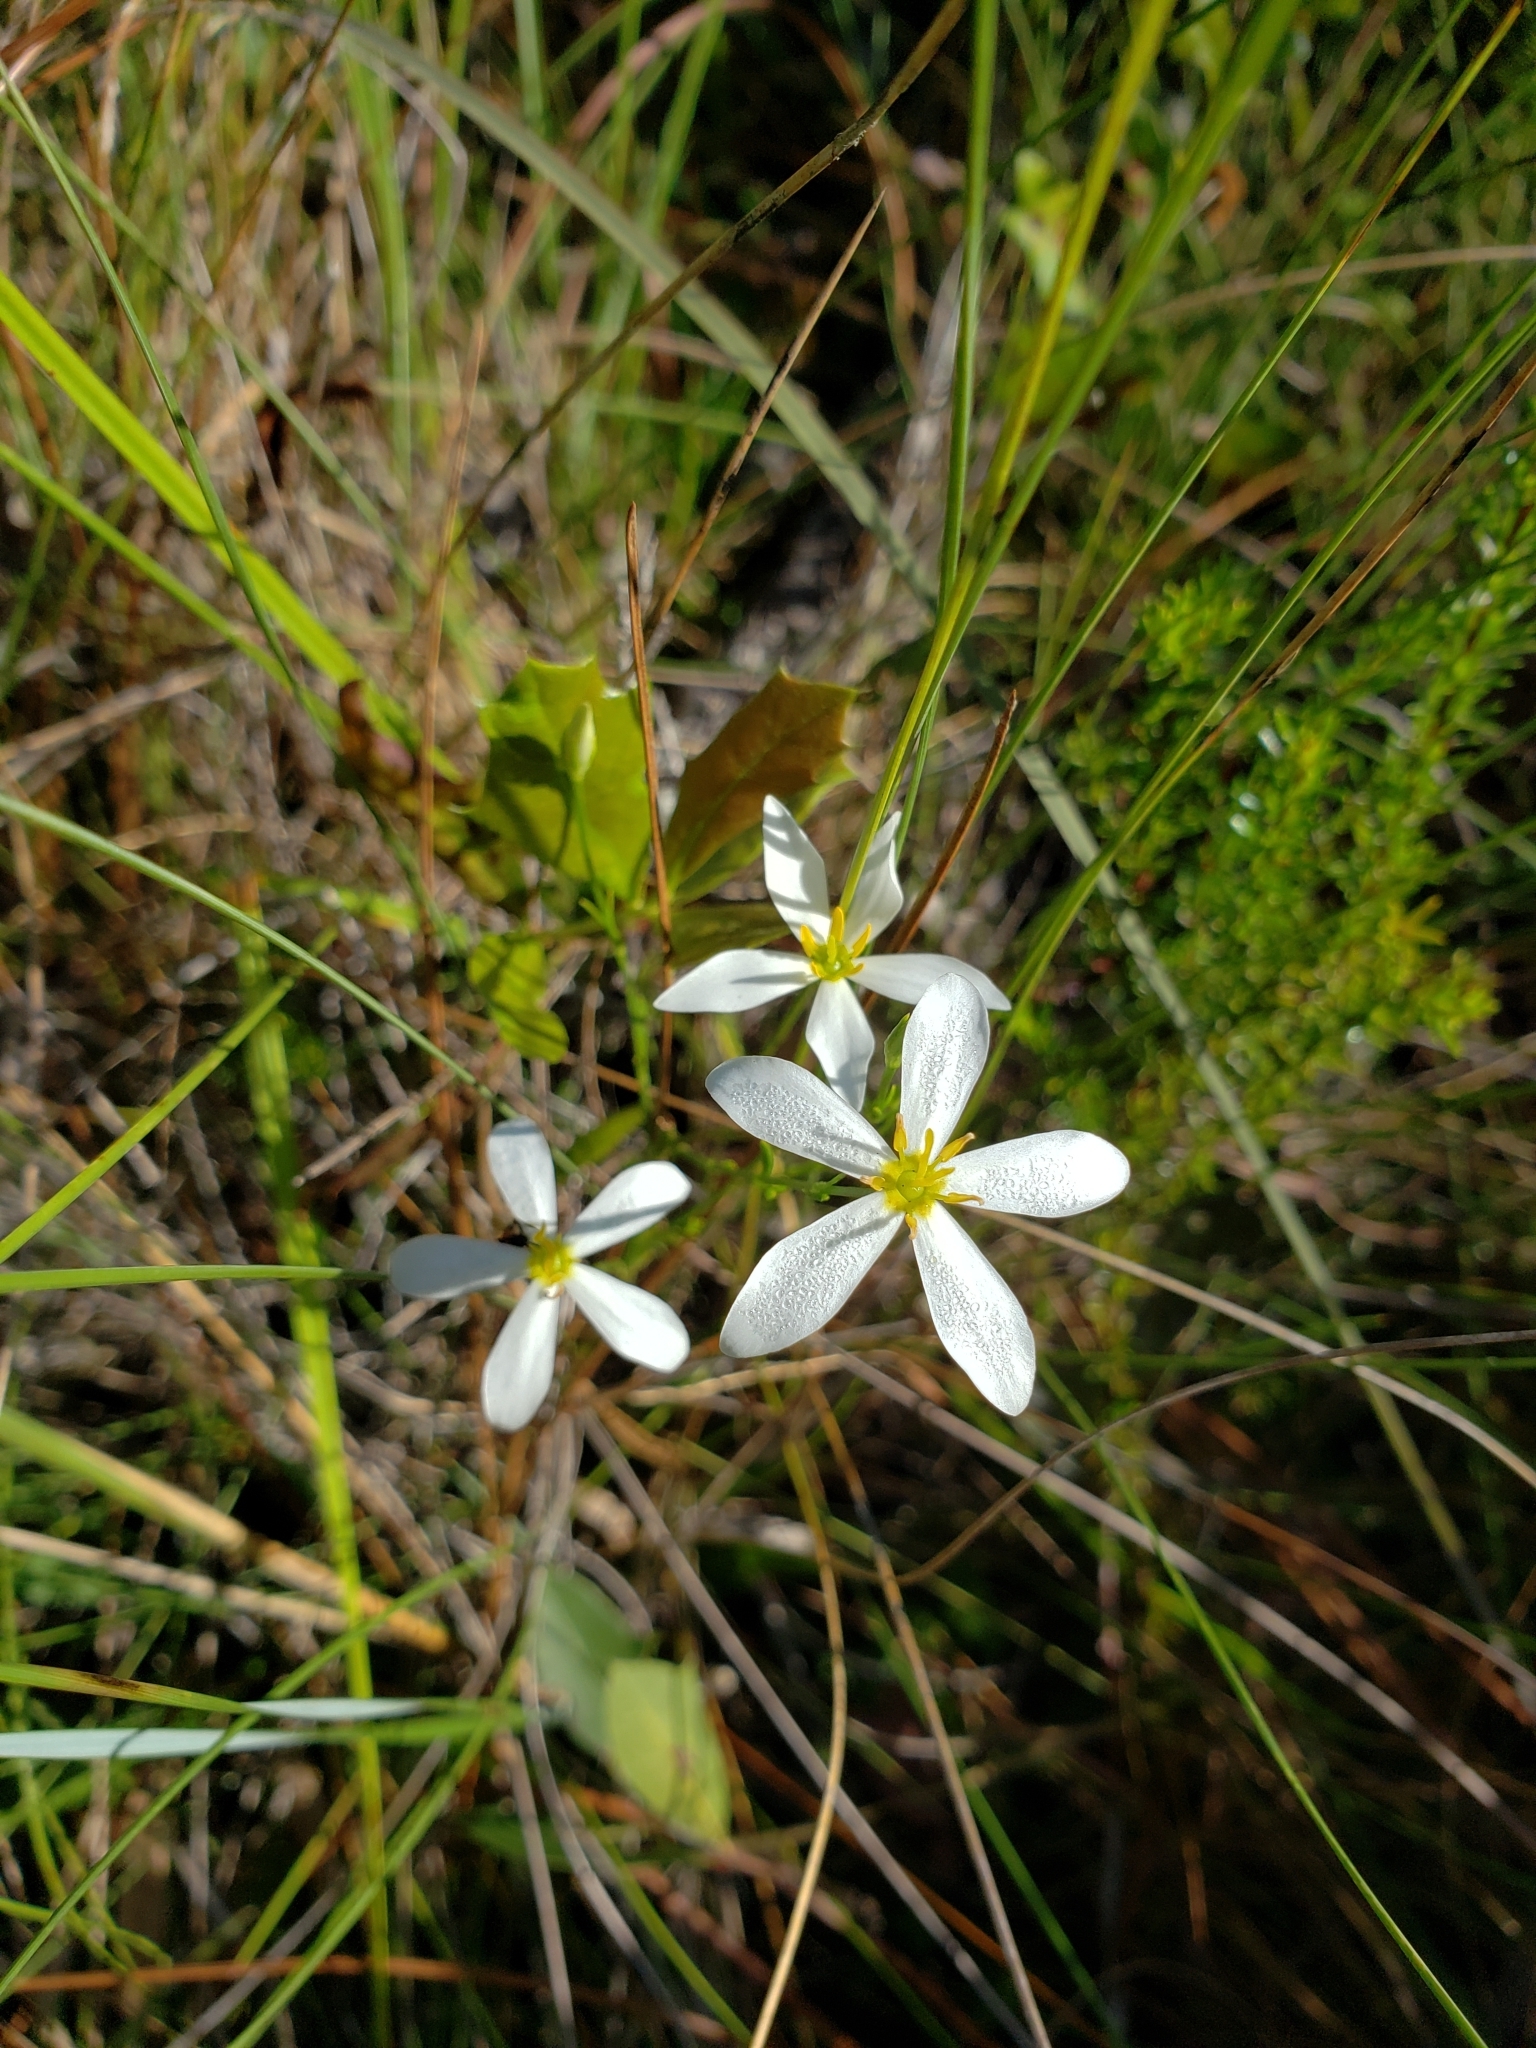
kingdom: Plantae
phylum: Tracheophyta
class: Magnoliopsida
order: Gentianales
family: Gentianaceae
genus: Sabatia
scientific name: Sabatia brevifolia
